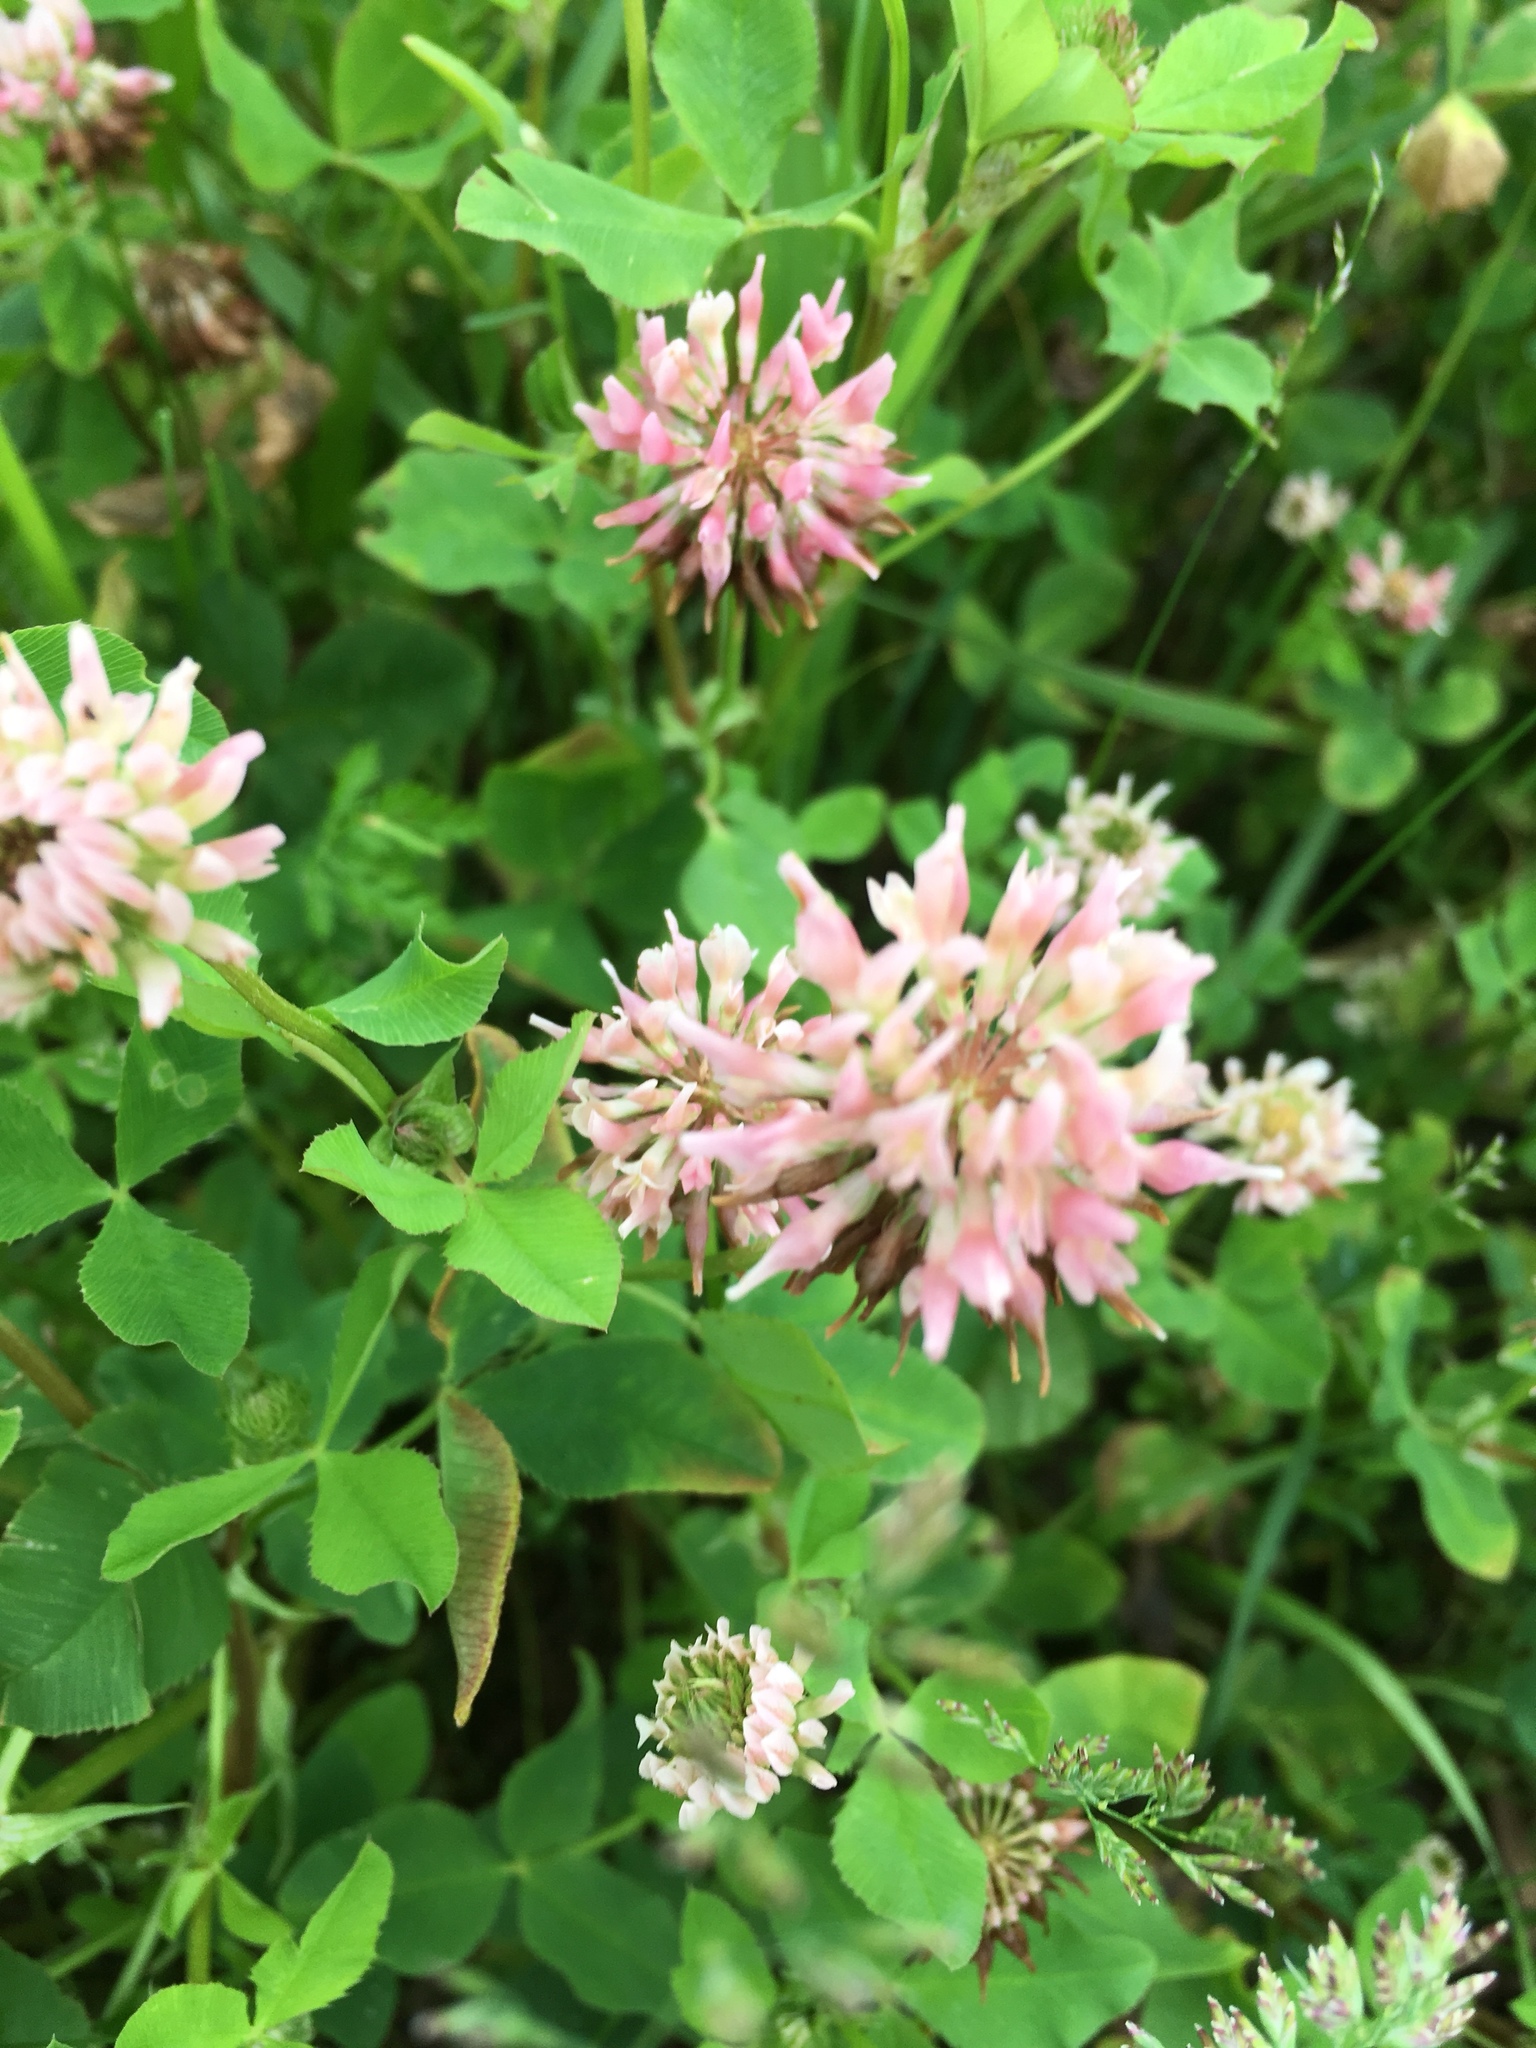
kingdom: Plantae
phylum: Tracheophyta
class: Magnoliopsida
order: Fabales
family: Fabaceae
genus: Trifolium
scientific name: Trifolium hybridum
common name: Alsike clover
